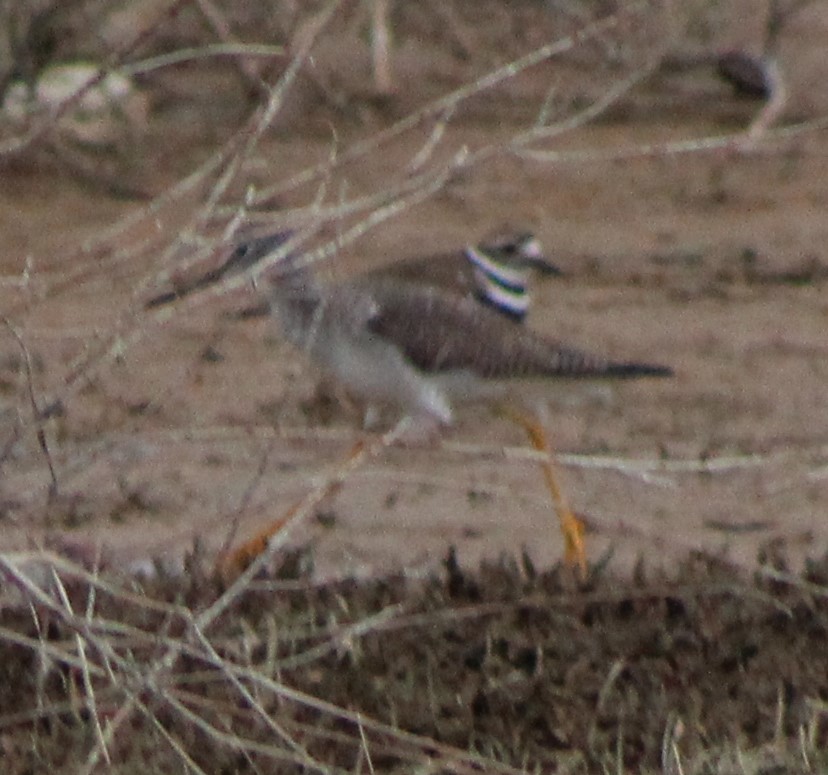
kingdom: Animalia
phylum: Chordata
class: Aves
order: Charadriiformes
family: Charadriidae
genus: Charadrius
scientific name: Charadrius vociferus
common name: Killdeer
